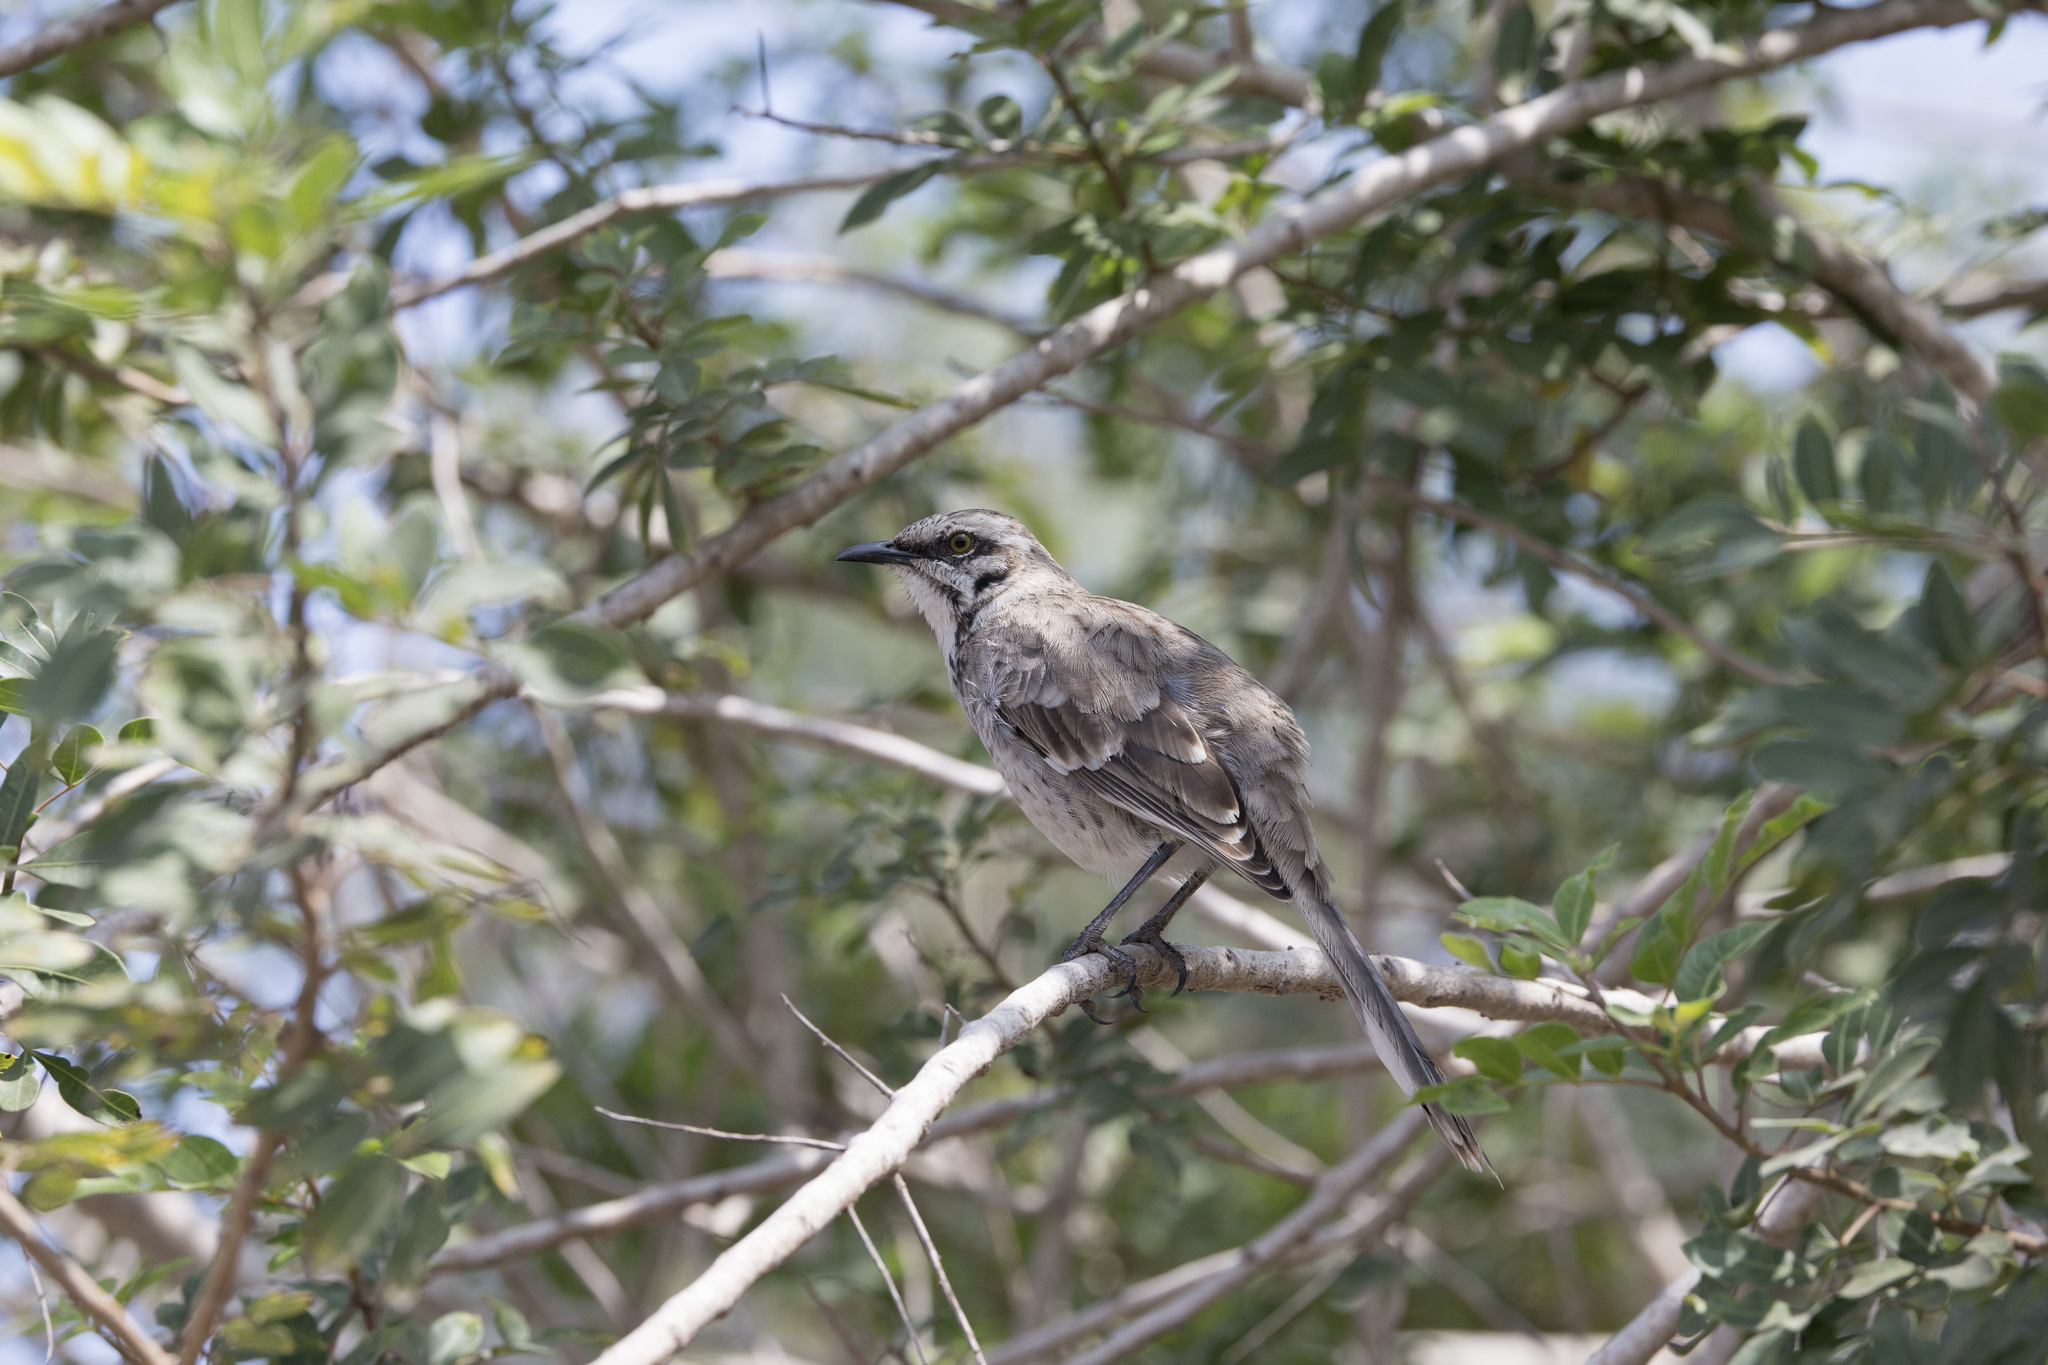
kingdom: Animalia
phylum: Chordata
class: Aves
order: Passeriformes
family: Mimidae
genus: Mimus
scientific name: Mimus longicaudatus
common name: Long-tailed mockingbird
